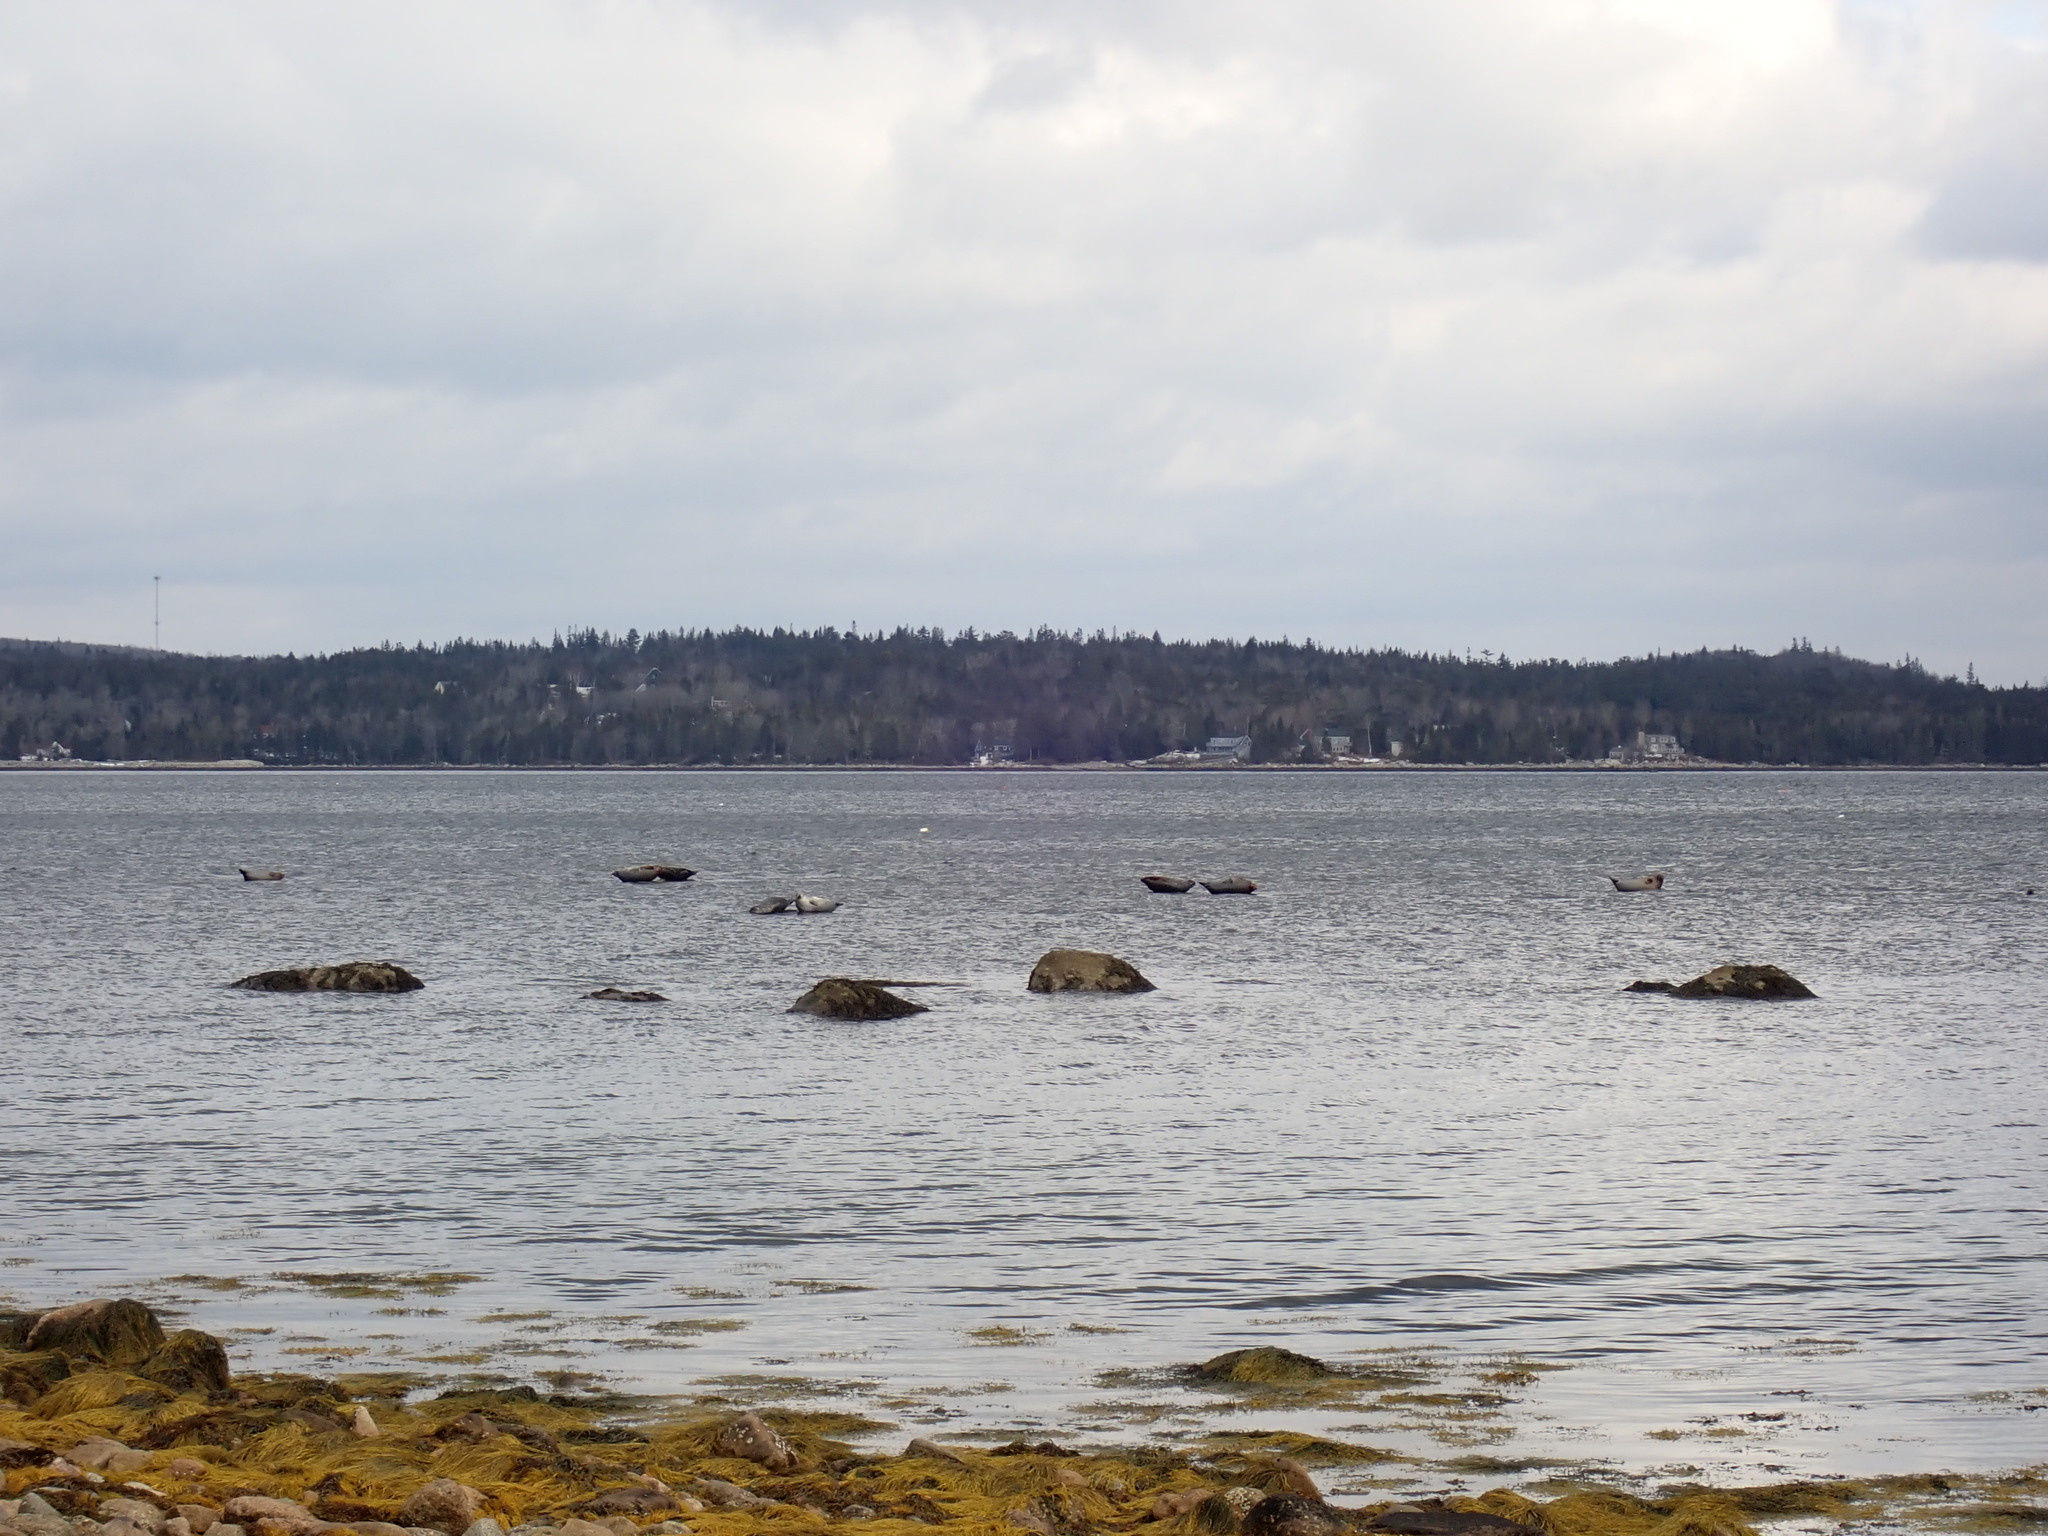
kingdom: Animalia
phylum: Chordata
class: Mammalia
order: Carnivora
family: Phocidae
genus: Phoca
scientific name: Phoca vitulina
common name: Harbor seal
